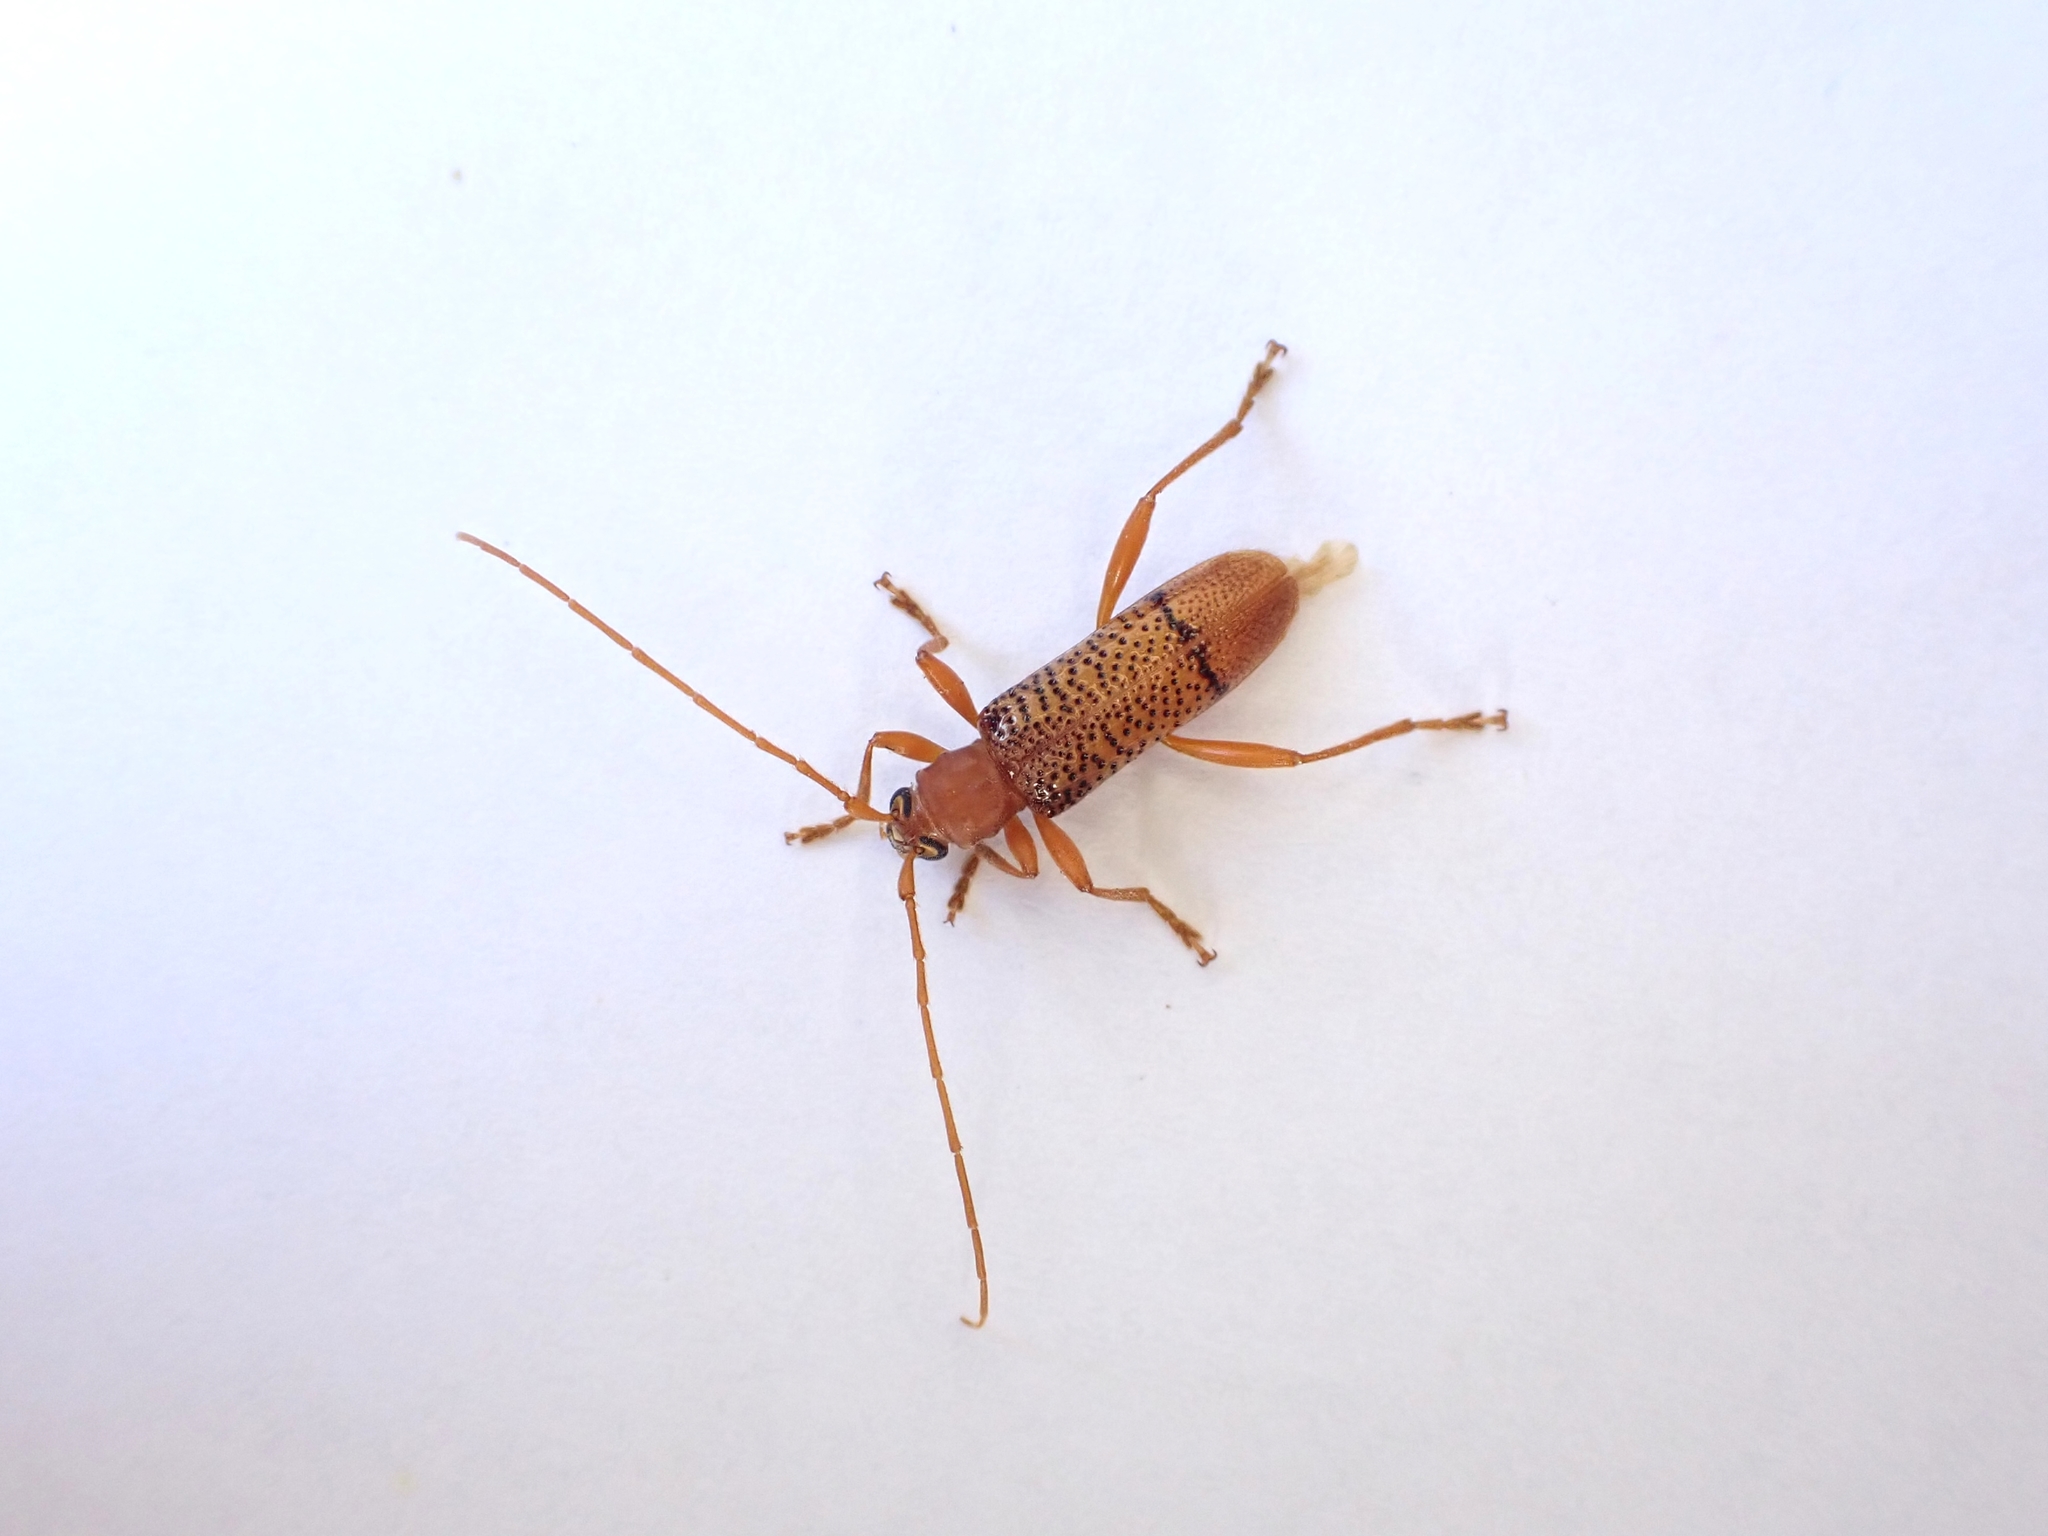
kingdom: Animalia
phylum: Arthropoda
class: Insecta
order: Coleoptera
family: Cerambycidae
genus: Xuthodes
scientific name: Xuthodes punctipennis
